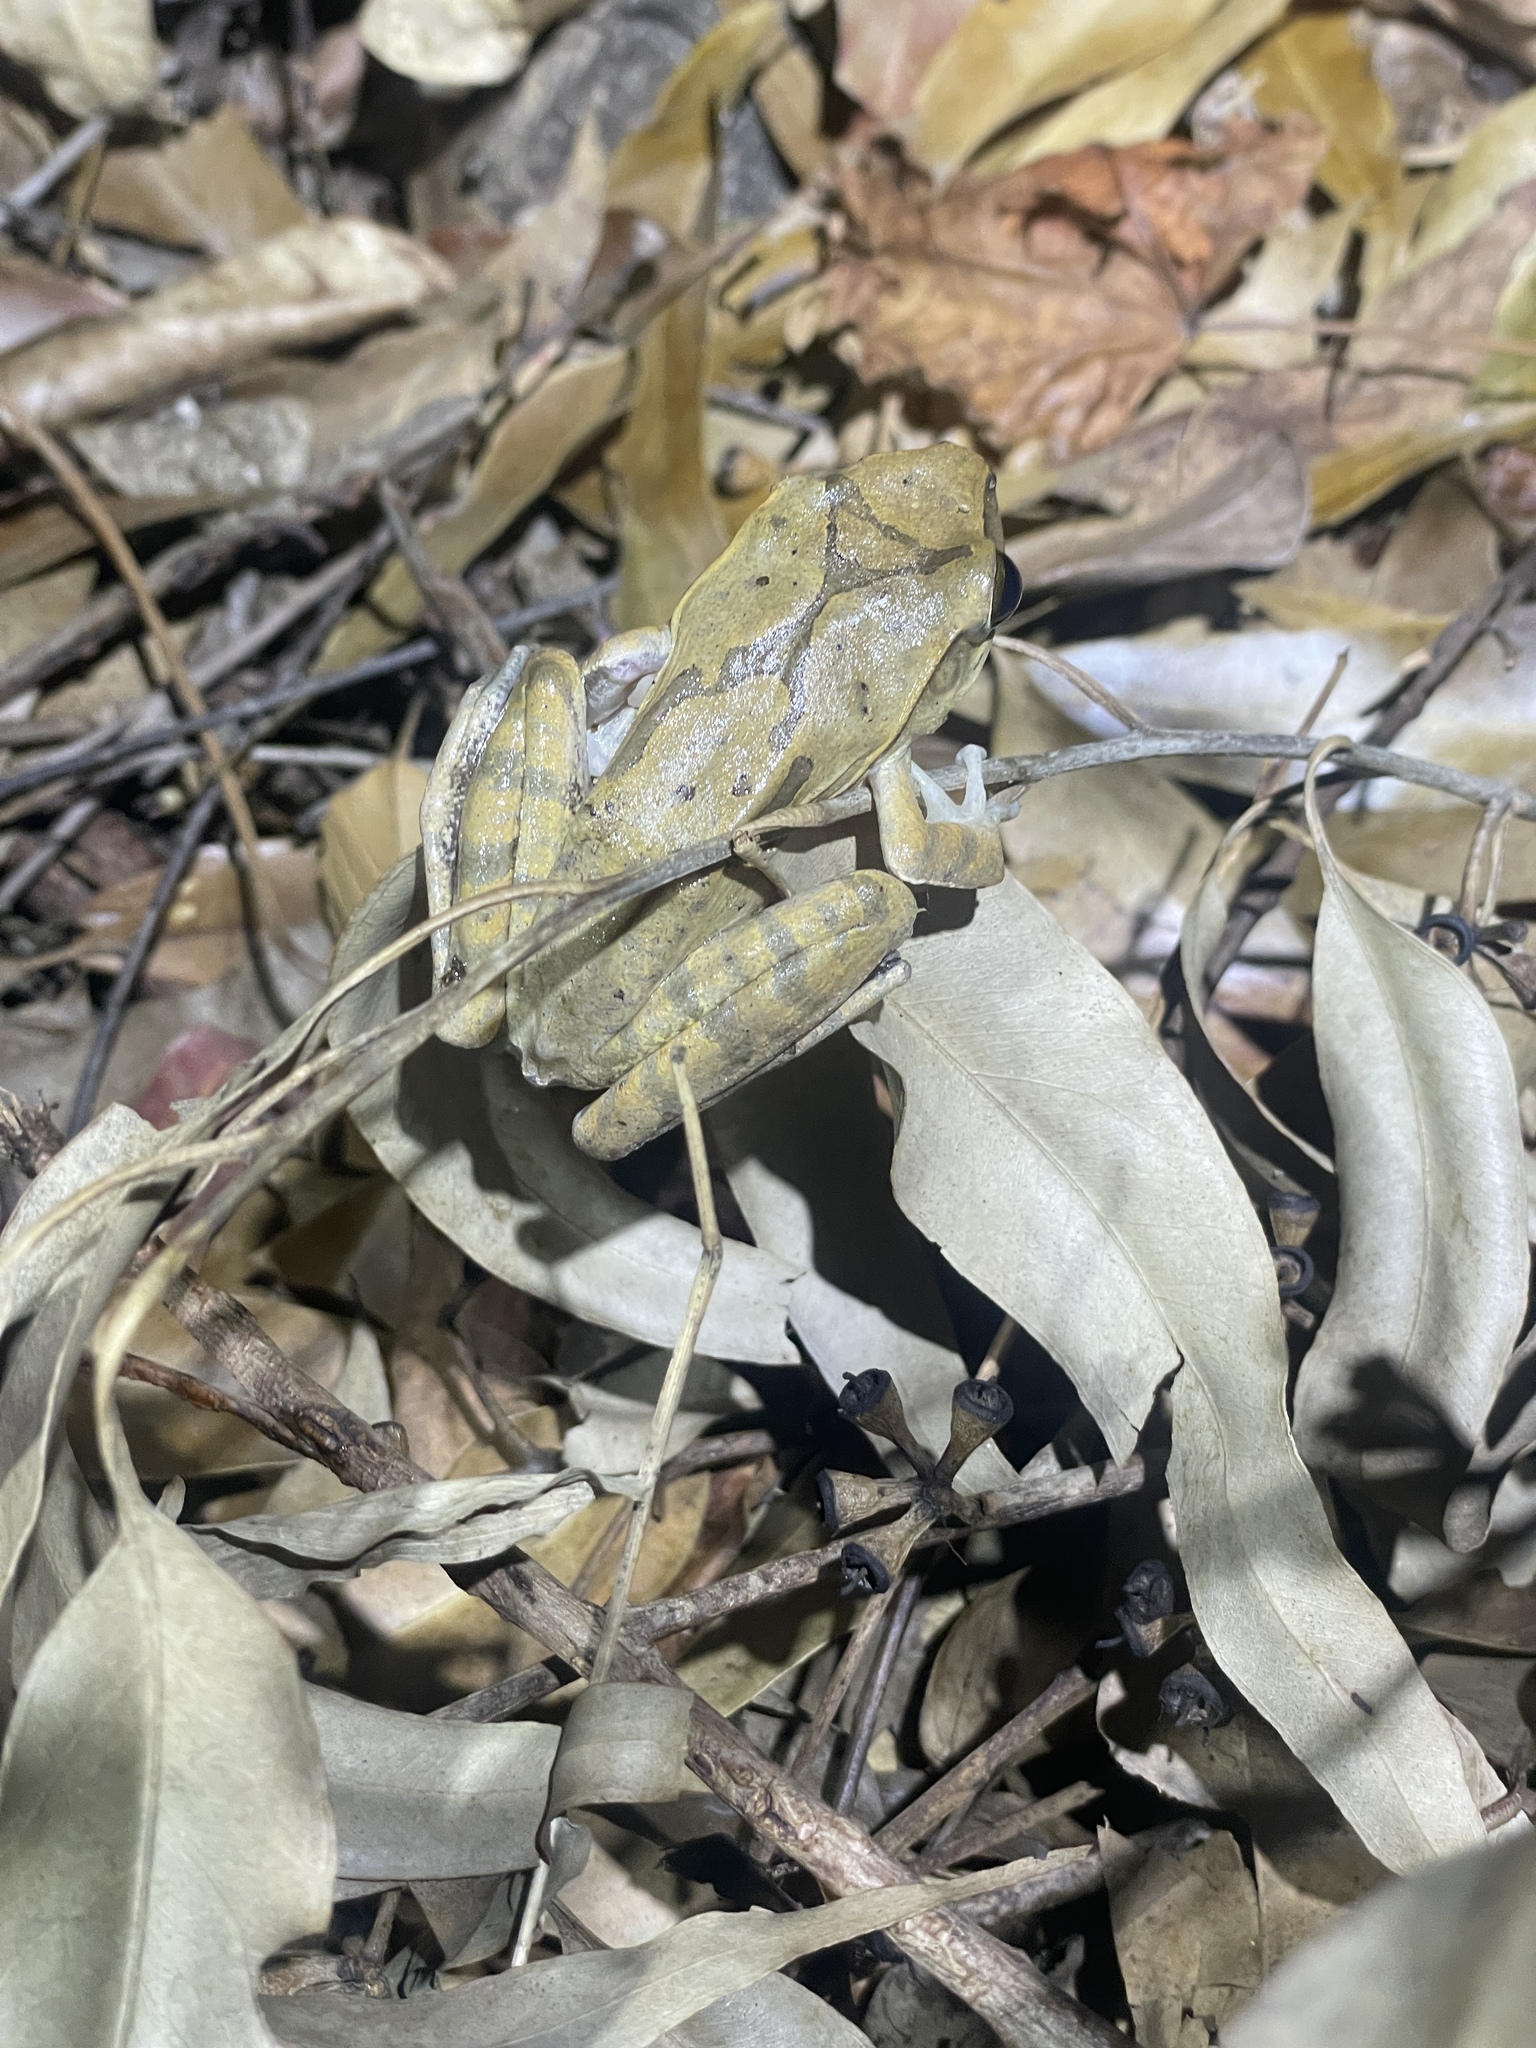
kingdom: Animalia
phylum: Chordata
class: Amphibia
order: Anura
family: Rhacophoridae
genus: Polypedates
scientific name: Polypedates megacephalus
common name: Hong kong whipping frog
